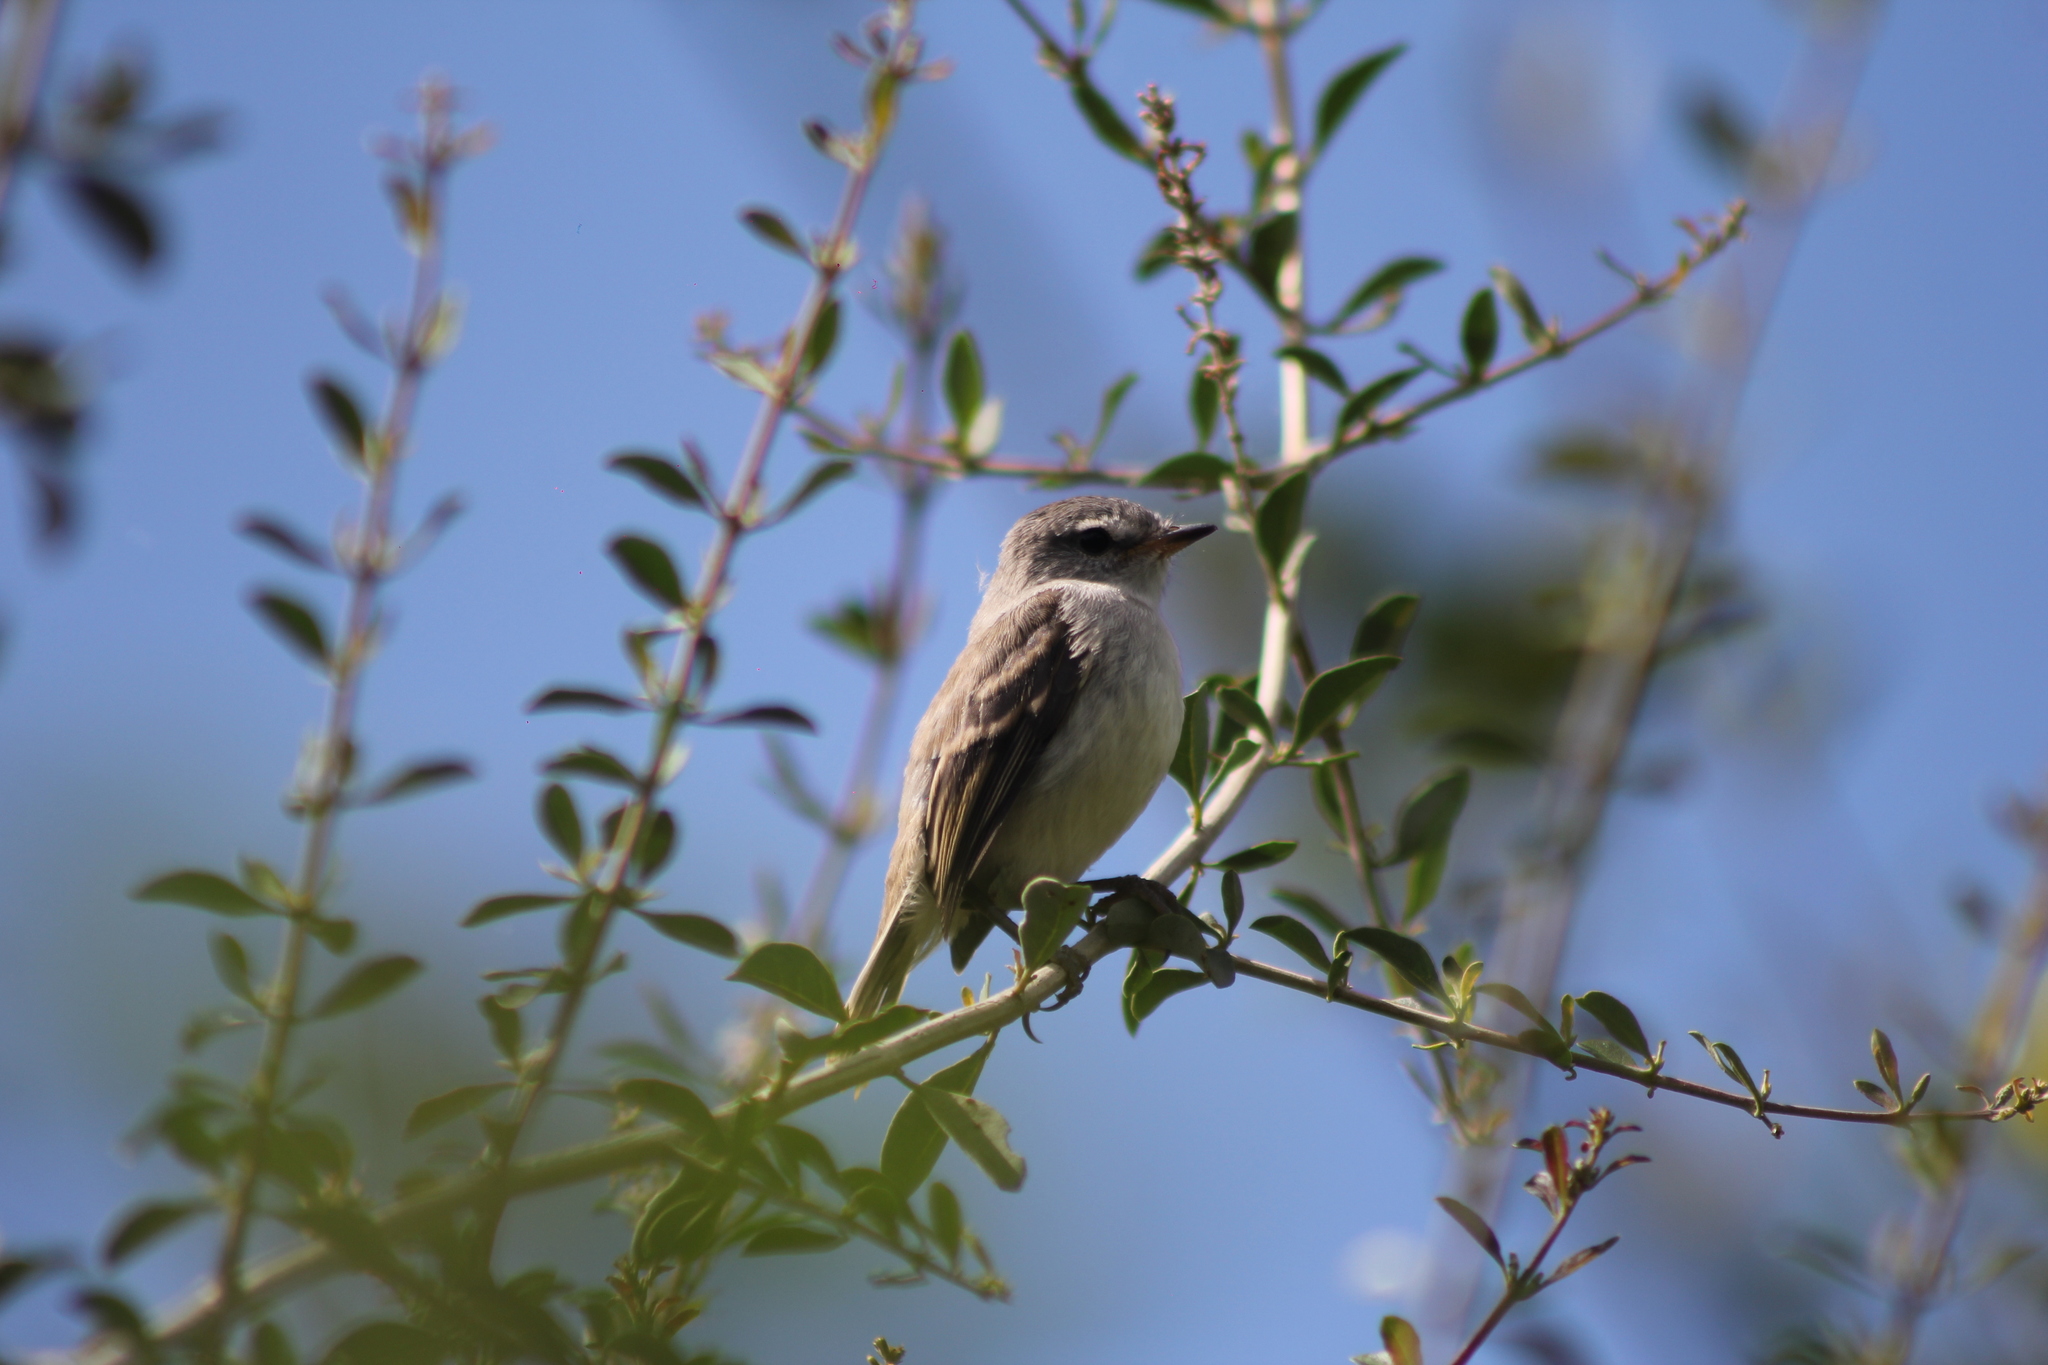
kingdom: Animalia
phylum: Chordata
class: Aves
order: Passeriformes
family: Tyrannidae
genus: Serpophaga
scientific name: Serpophaga subcristata
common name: White-crested tyrannulet
